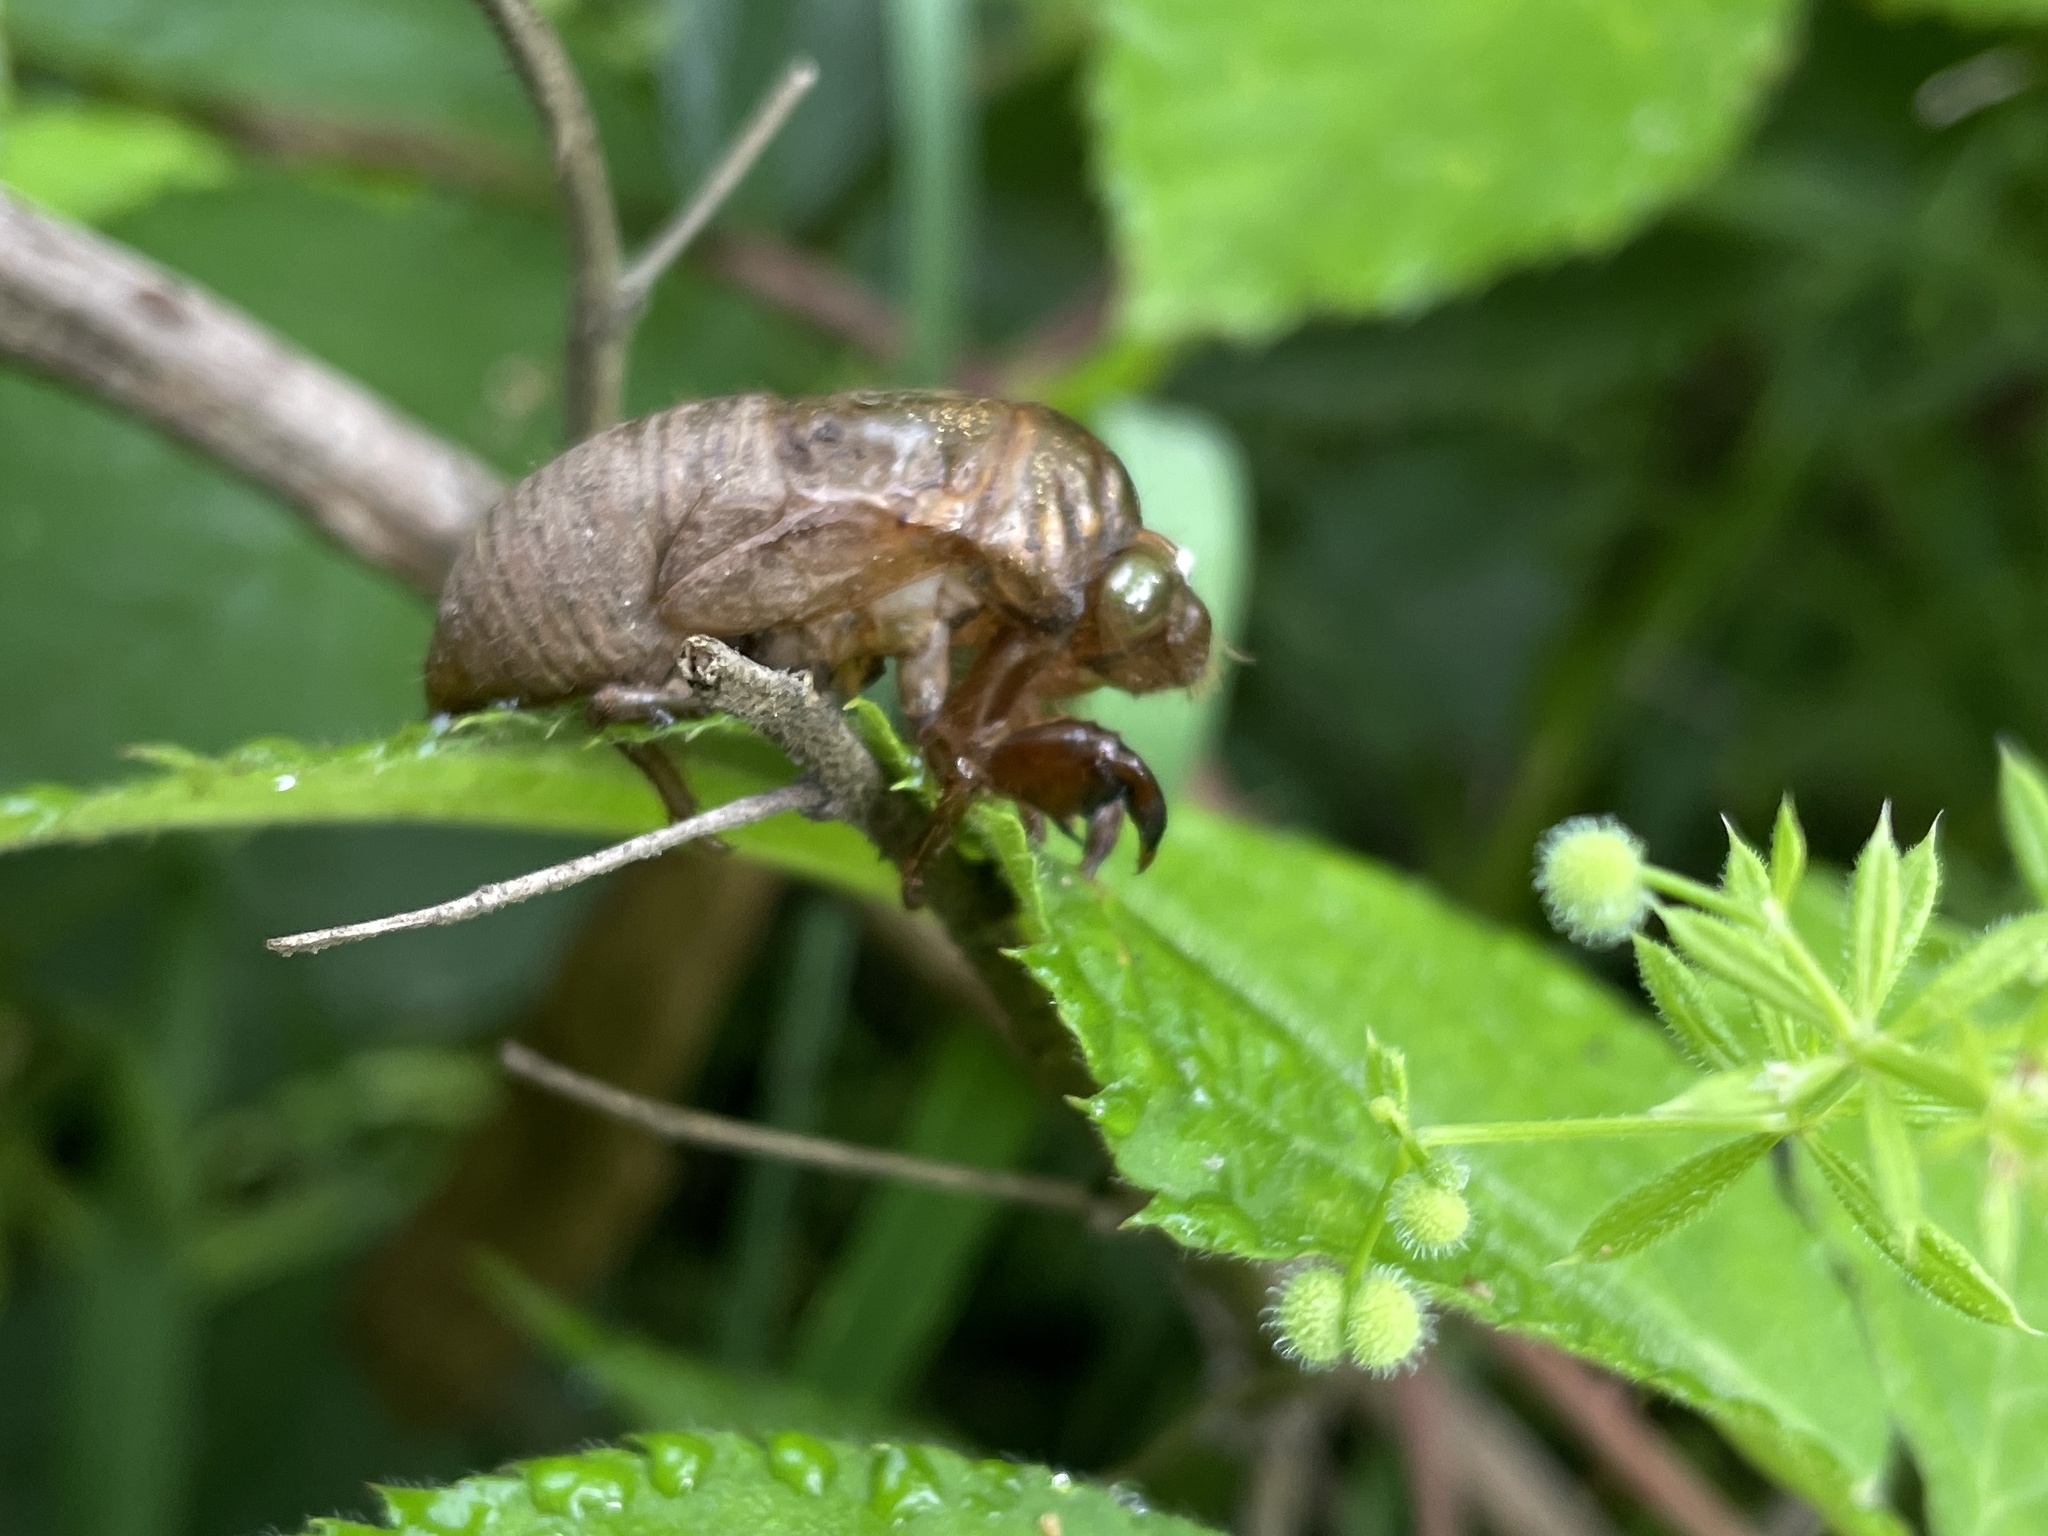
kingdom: Animalia
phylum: Arthropoda
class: Insecta
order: Hemiptera
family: Cicadidae
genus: Neotibicen
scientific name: Neotibicen canicularis
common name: God-day cicada
